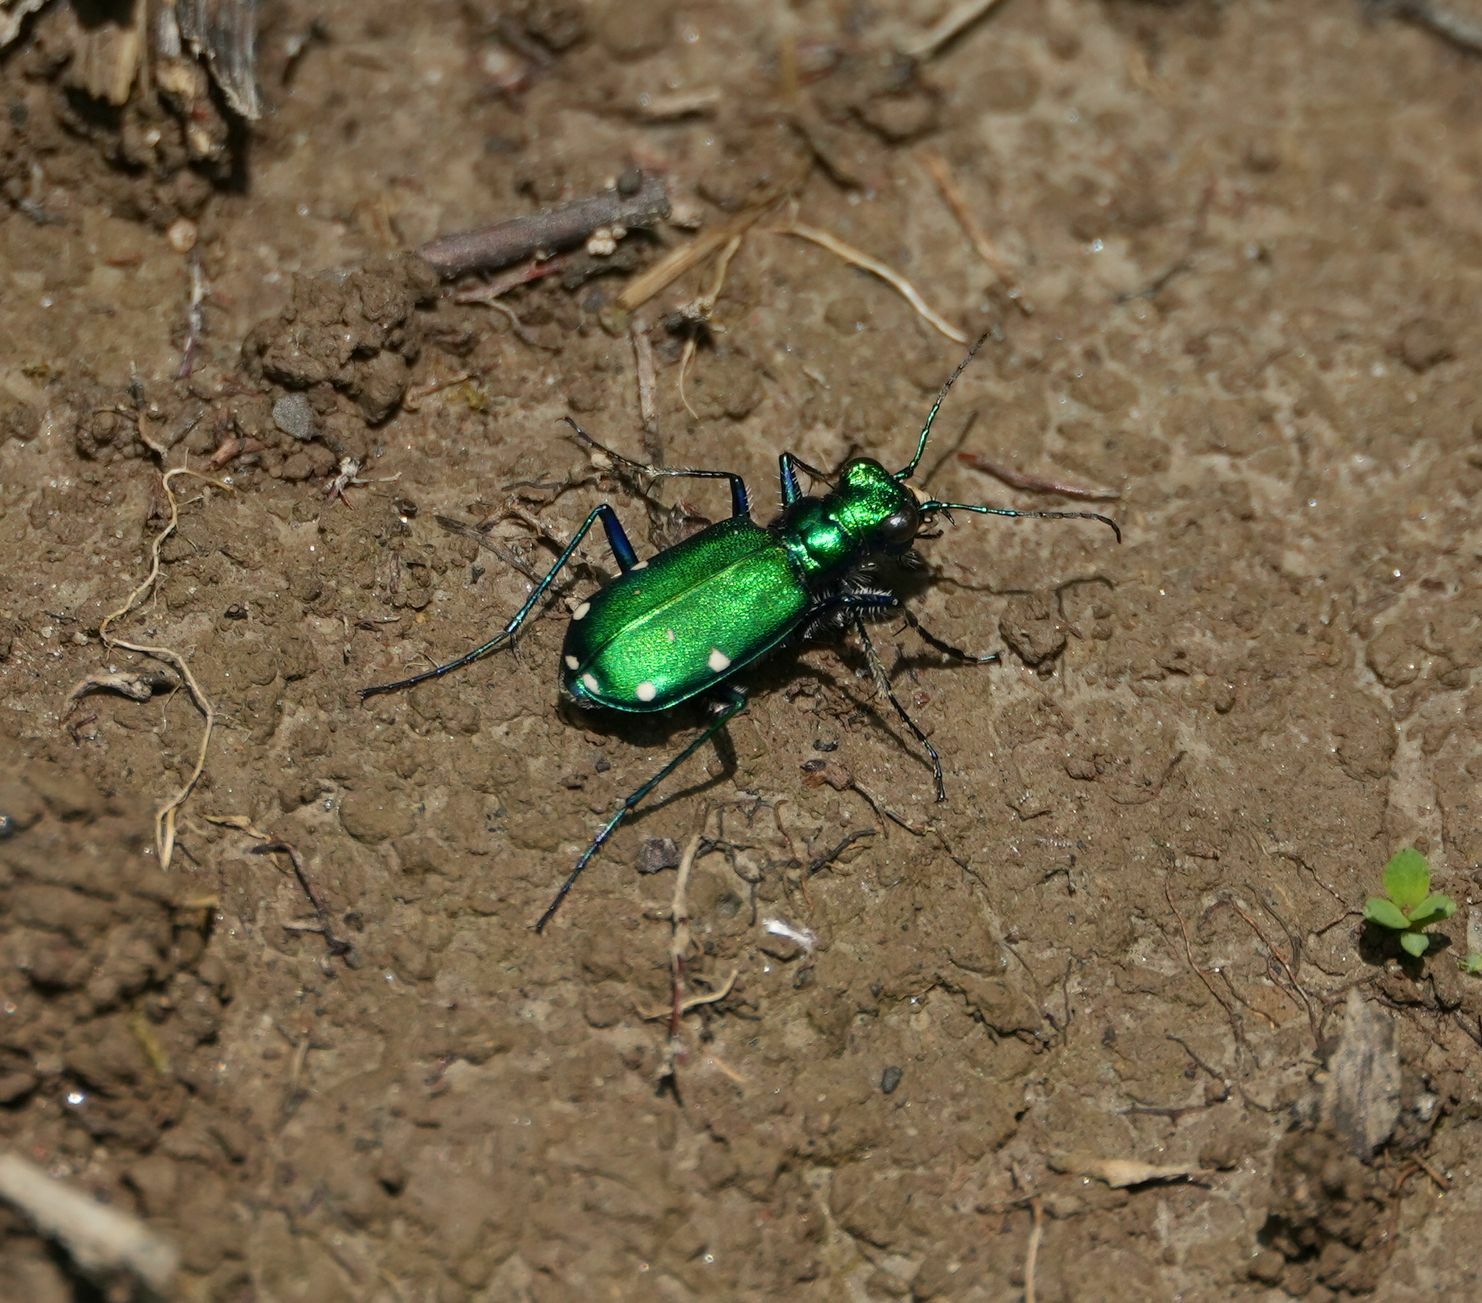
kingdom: Animalia
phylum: Arthropoda
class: Insecta
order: Coleoptera
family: Carabidae
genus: Cicindela
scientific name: Cicindela sexguttata
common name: Six-spotted tiger beetle
